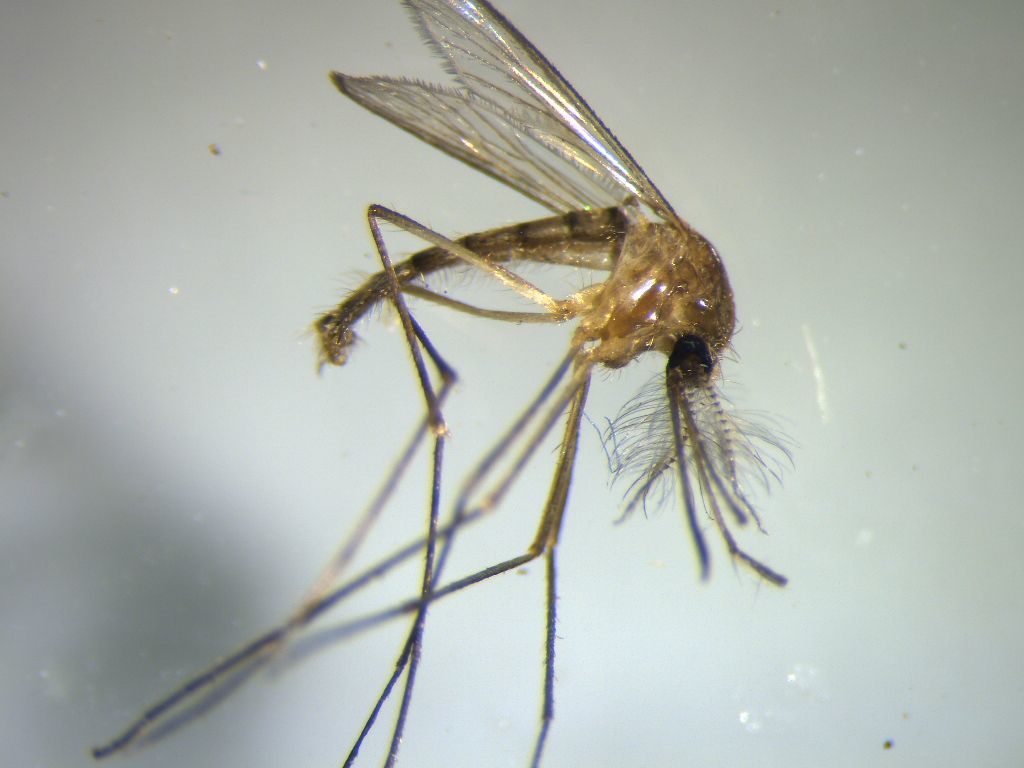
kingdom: Animalia
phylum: Arthropoda
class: Insecta
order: Diptera
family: Culicidae
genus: Culex
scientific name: Culex quinquefasciatus
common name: Southern house mosquito
